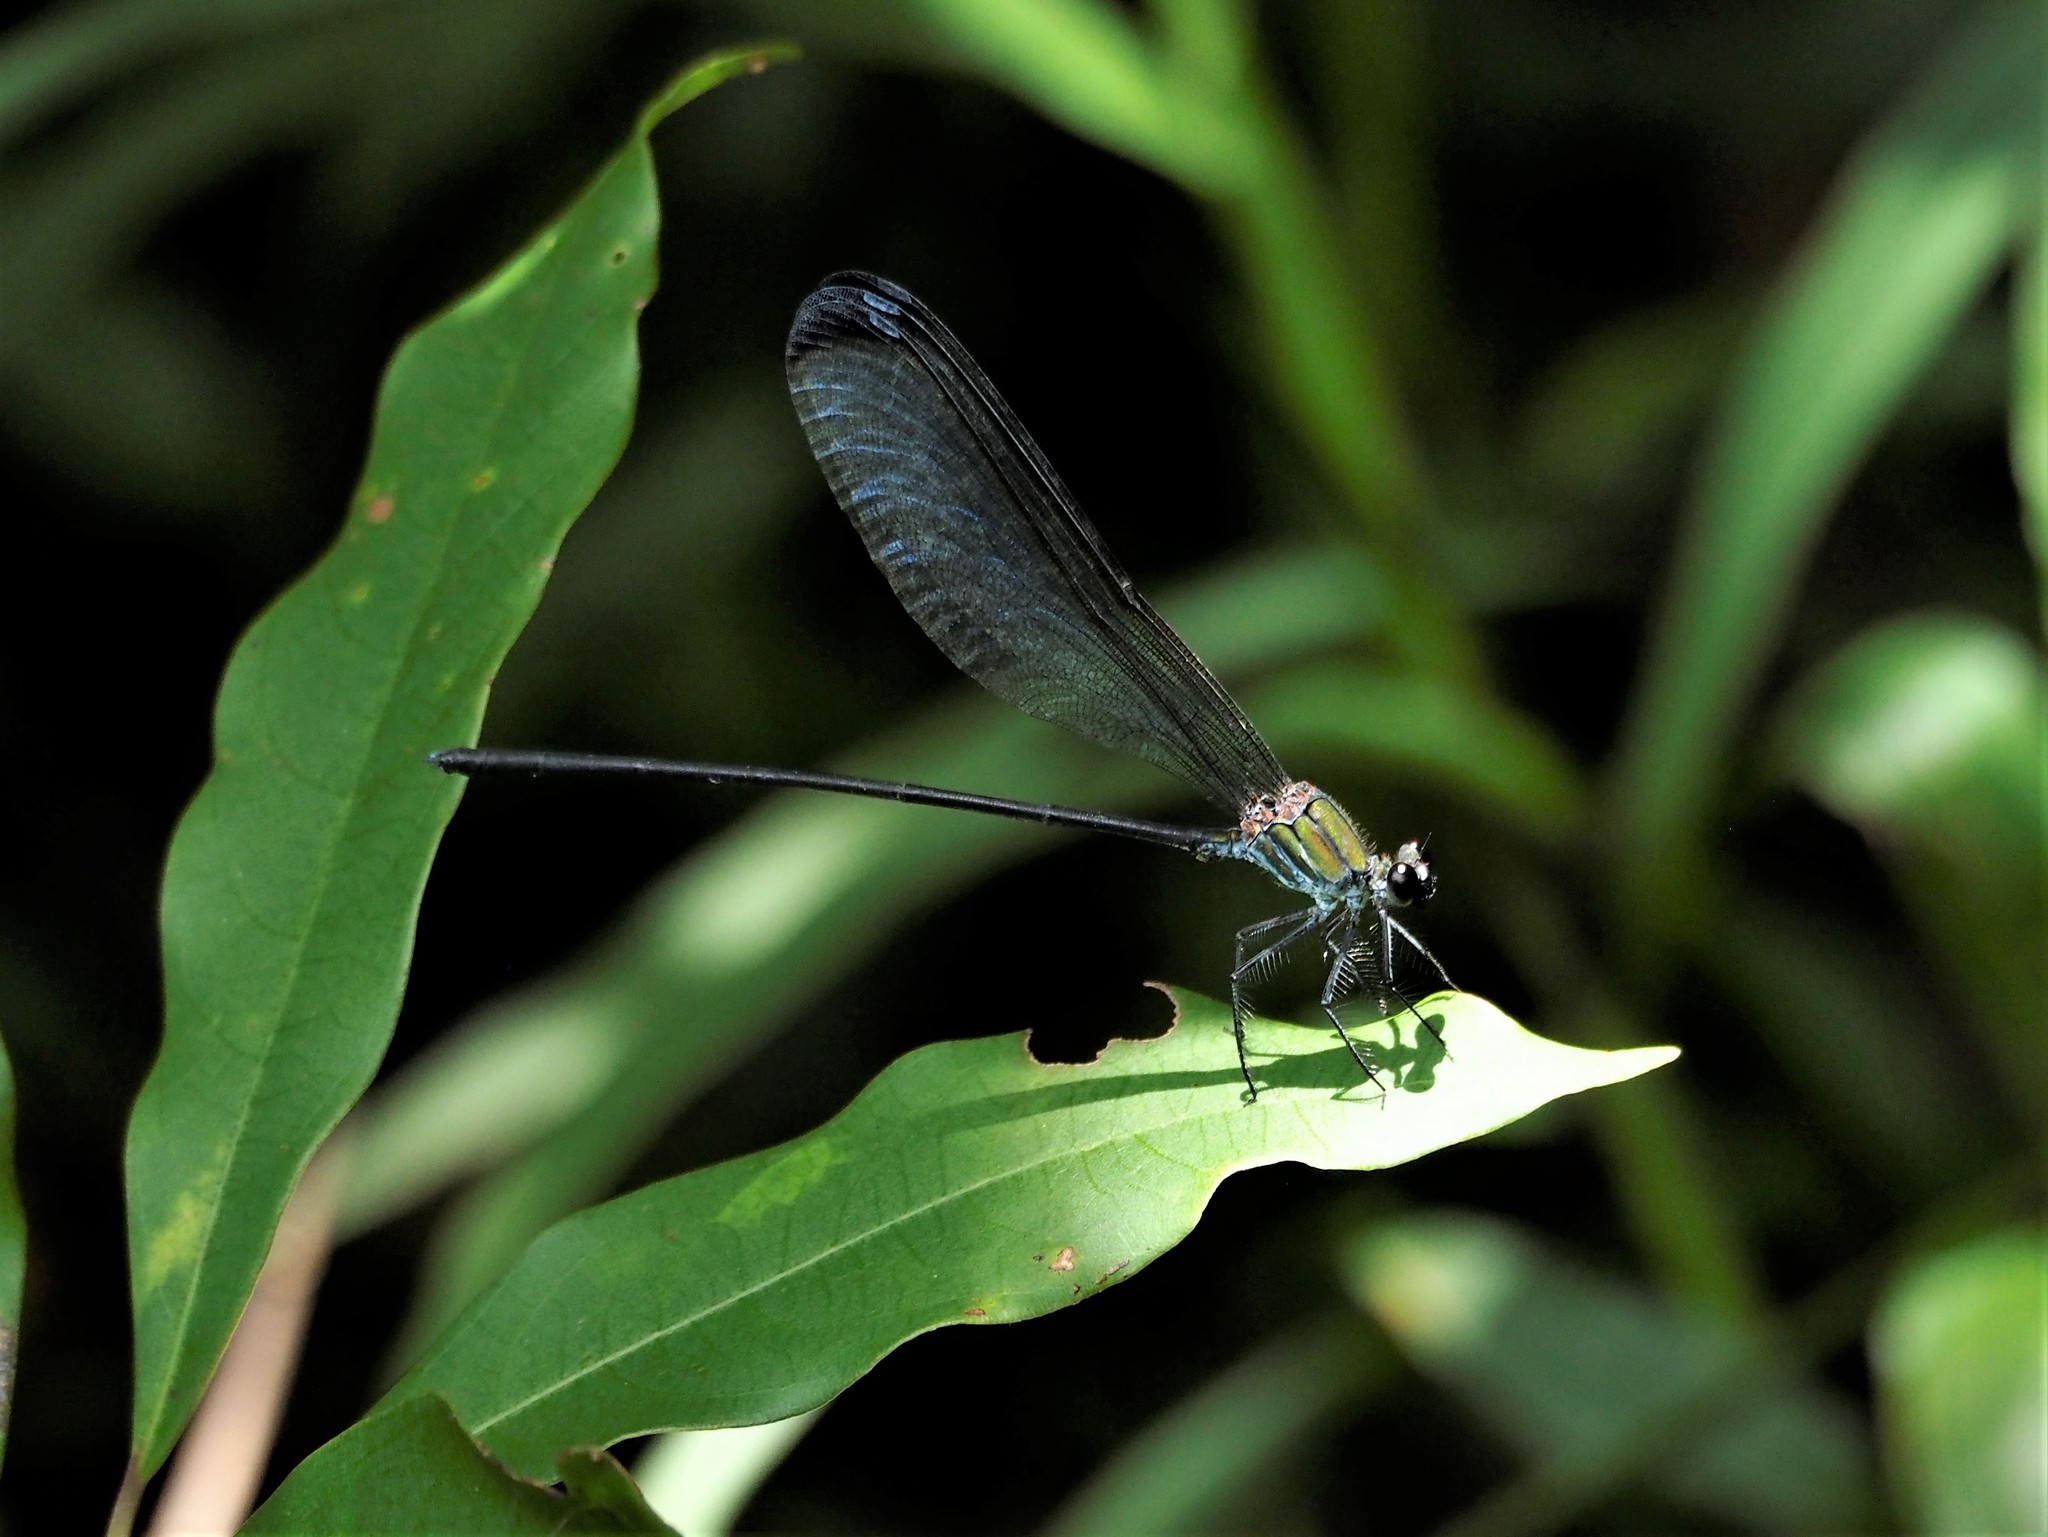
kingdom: Animalia
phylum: Arthropoda
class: Insecta
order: Odonata
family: Calopterygidae
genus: Psolodesmus
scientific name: Psolodesmus mandarinus
